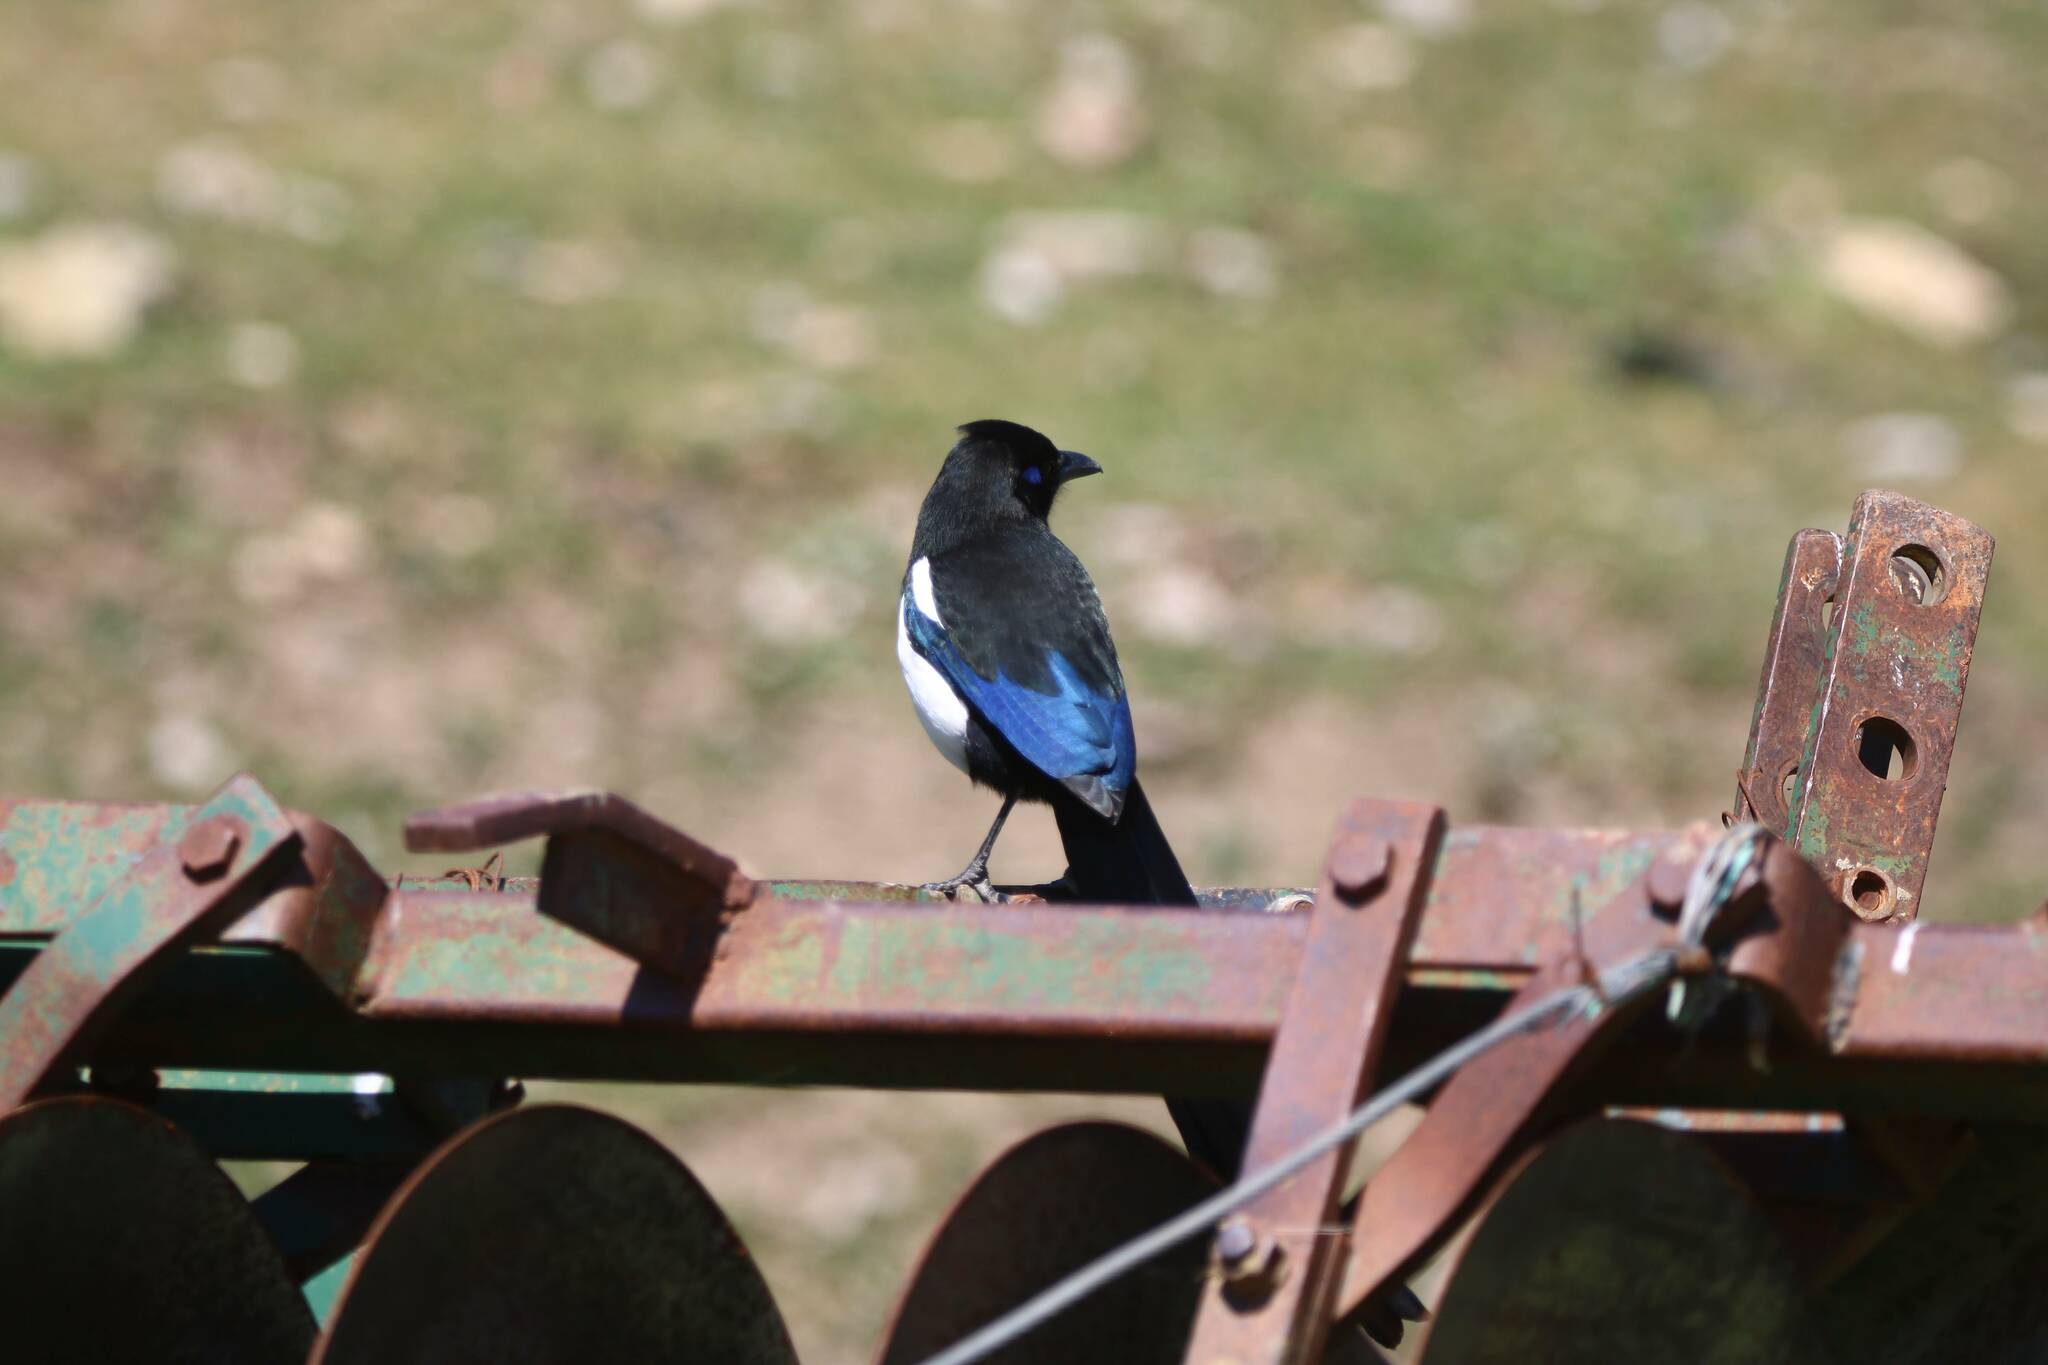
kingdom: Animalia
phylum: Chordata
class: Aves
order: Passeriformes
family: Corvidae
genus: Pica
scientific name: Pica mauritanica
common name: Maghreb magpie
